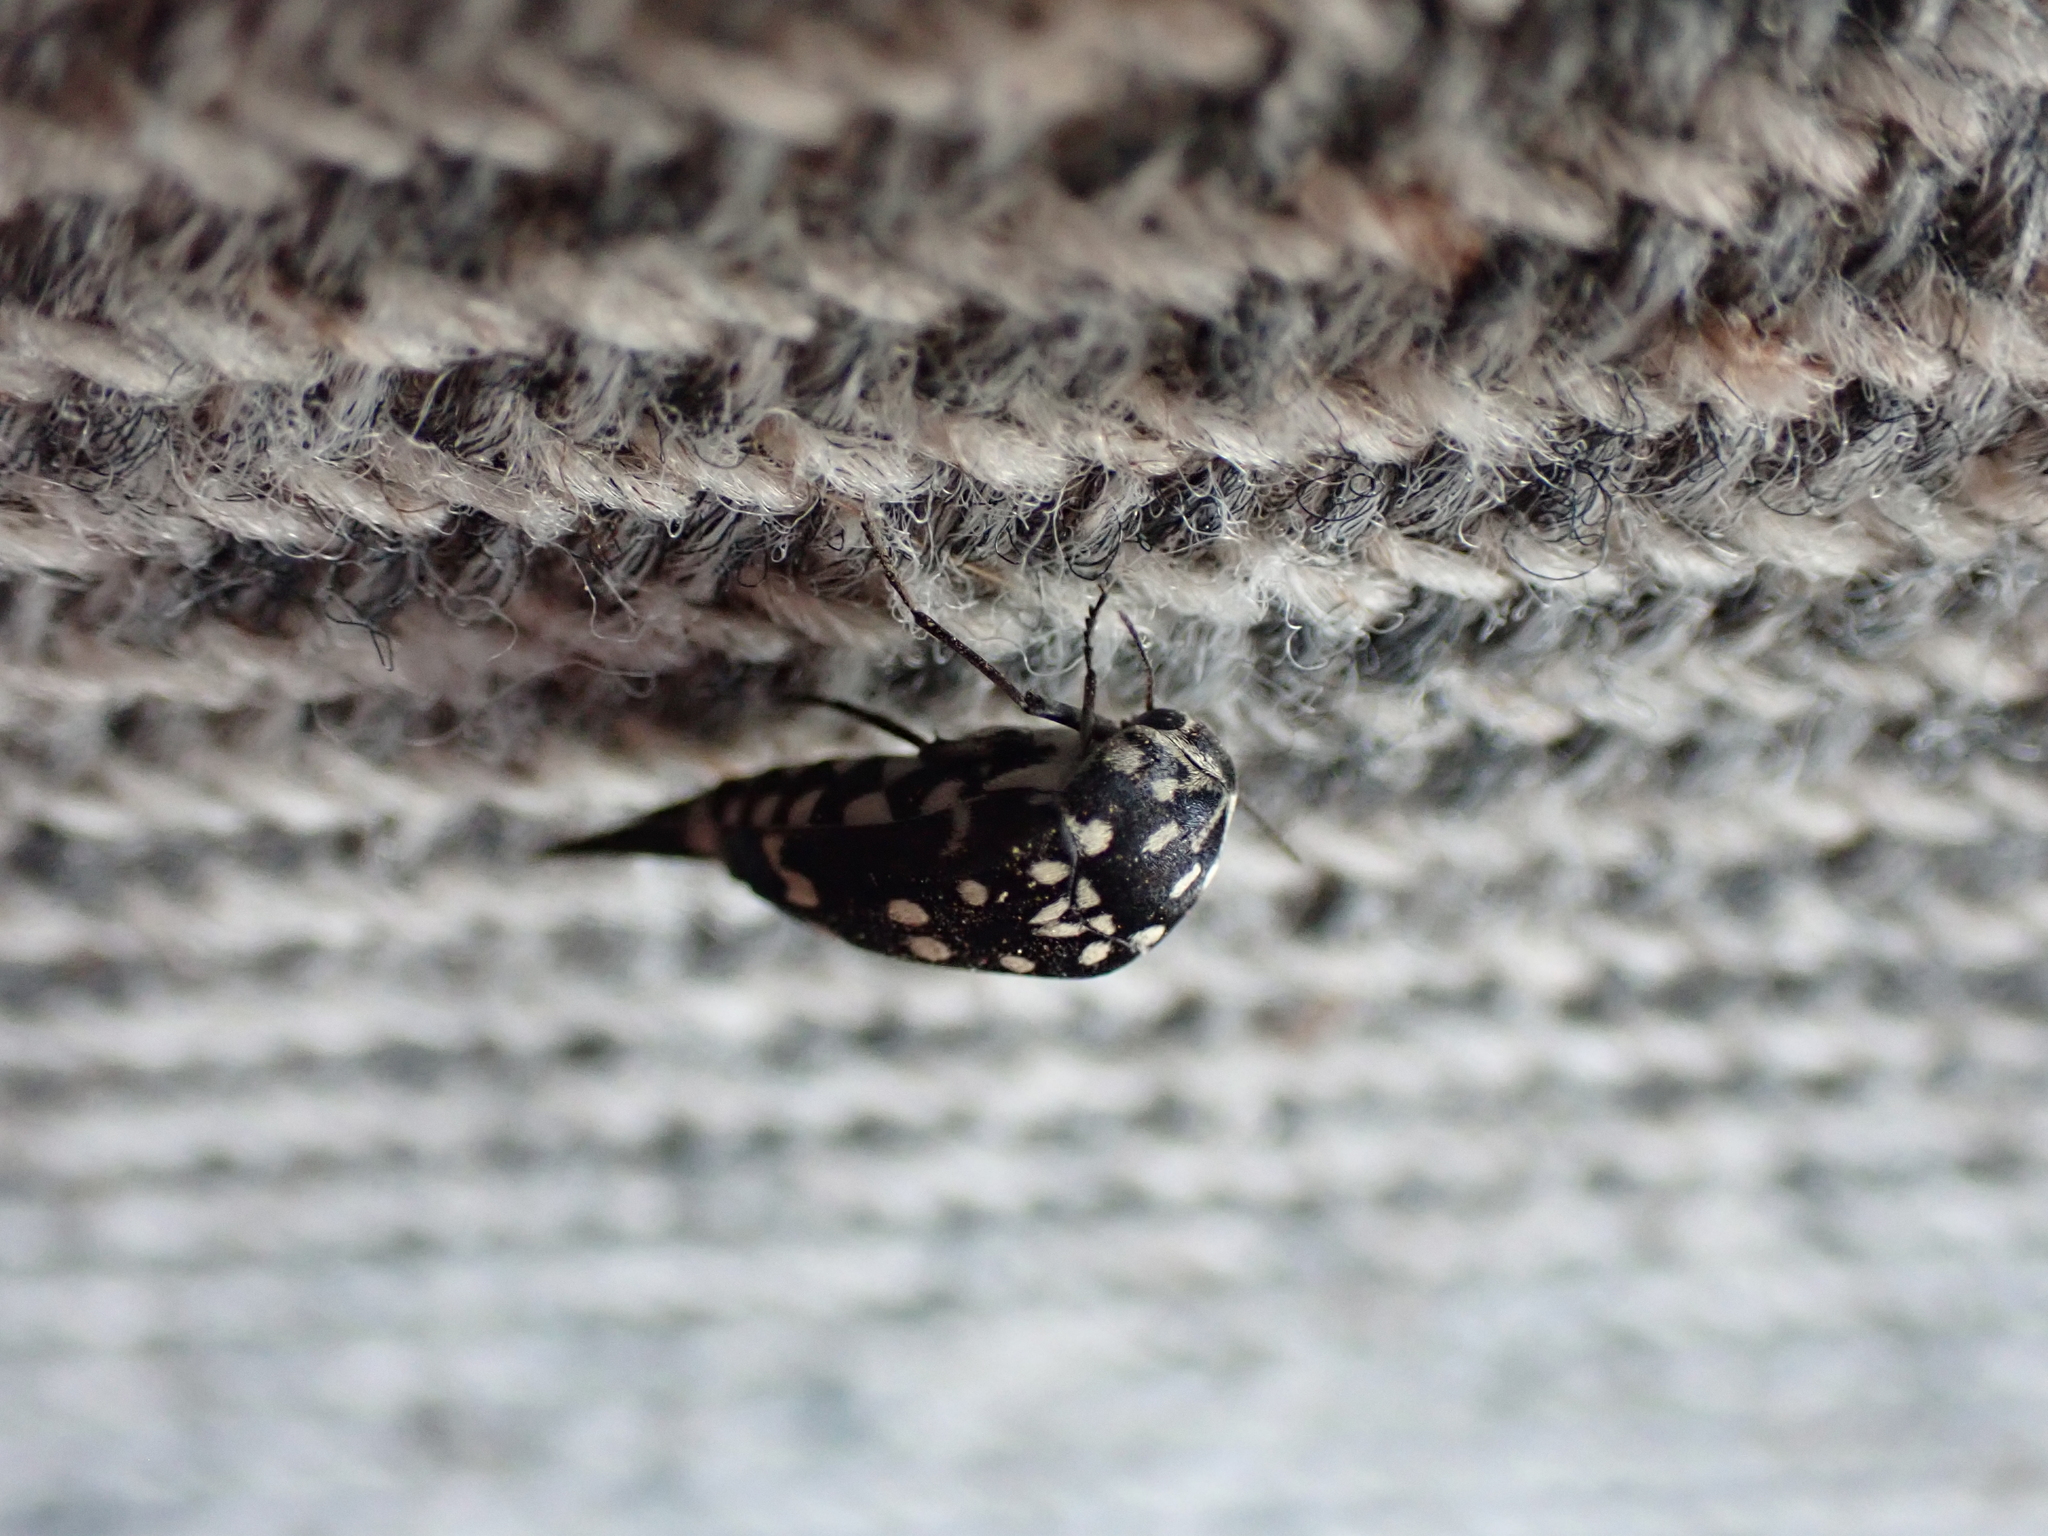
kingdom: Animalia
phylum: Arthropoda
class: Insecta
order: Coleoptera
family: Mordellidae
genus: Hoshihananomia
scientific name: Hoshihananomia
